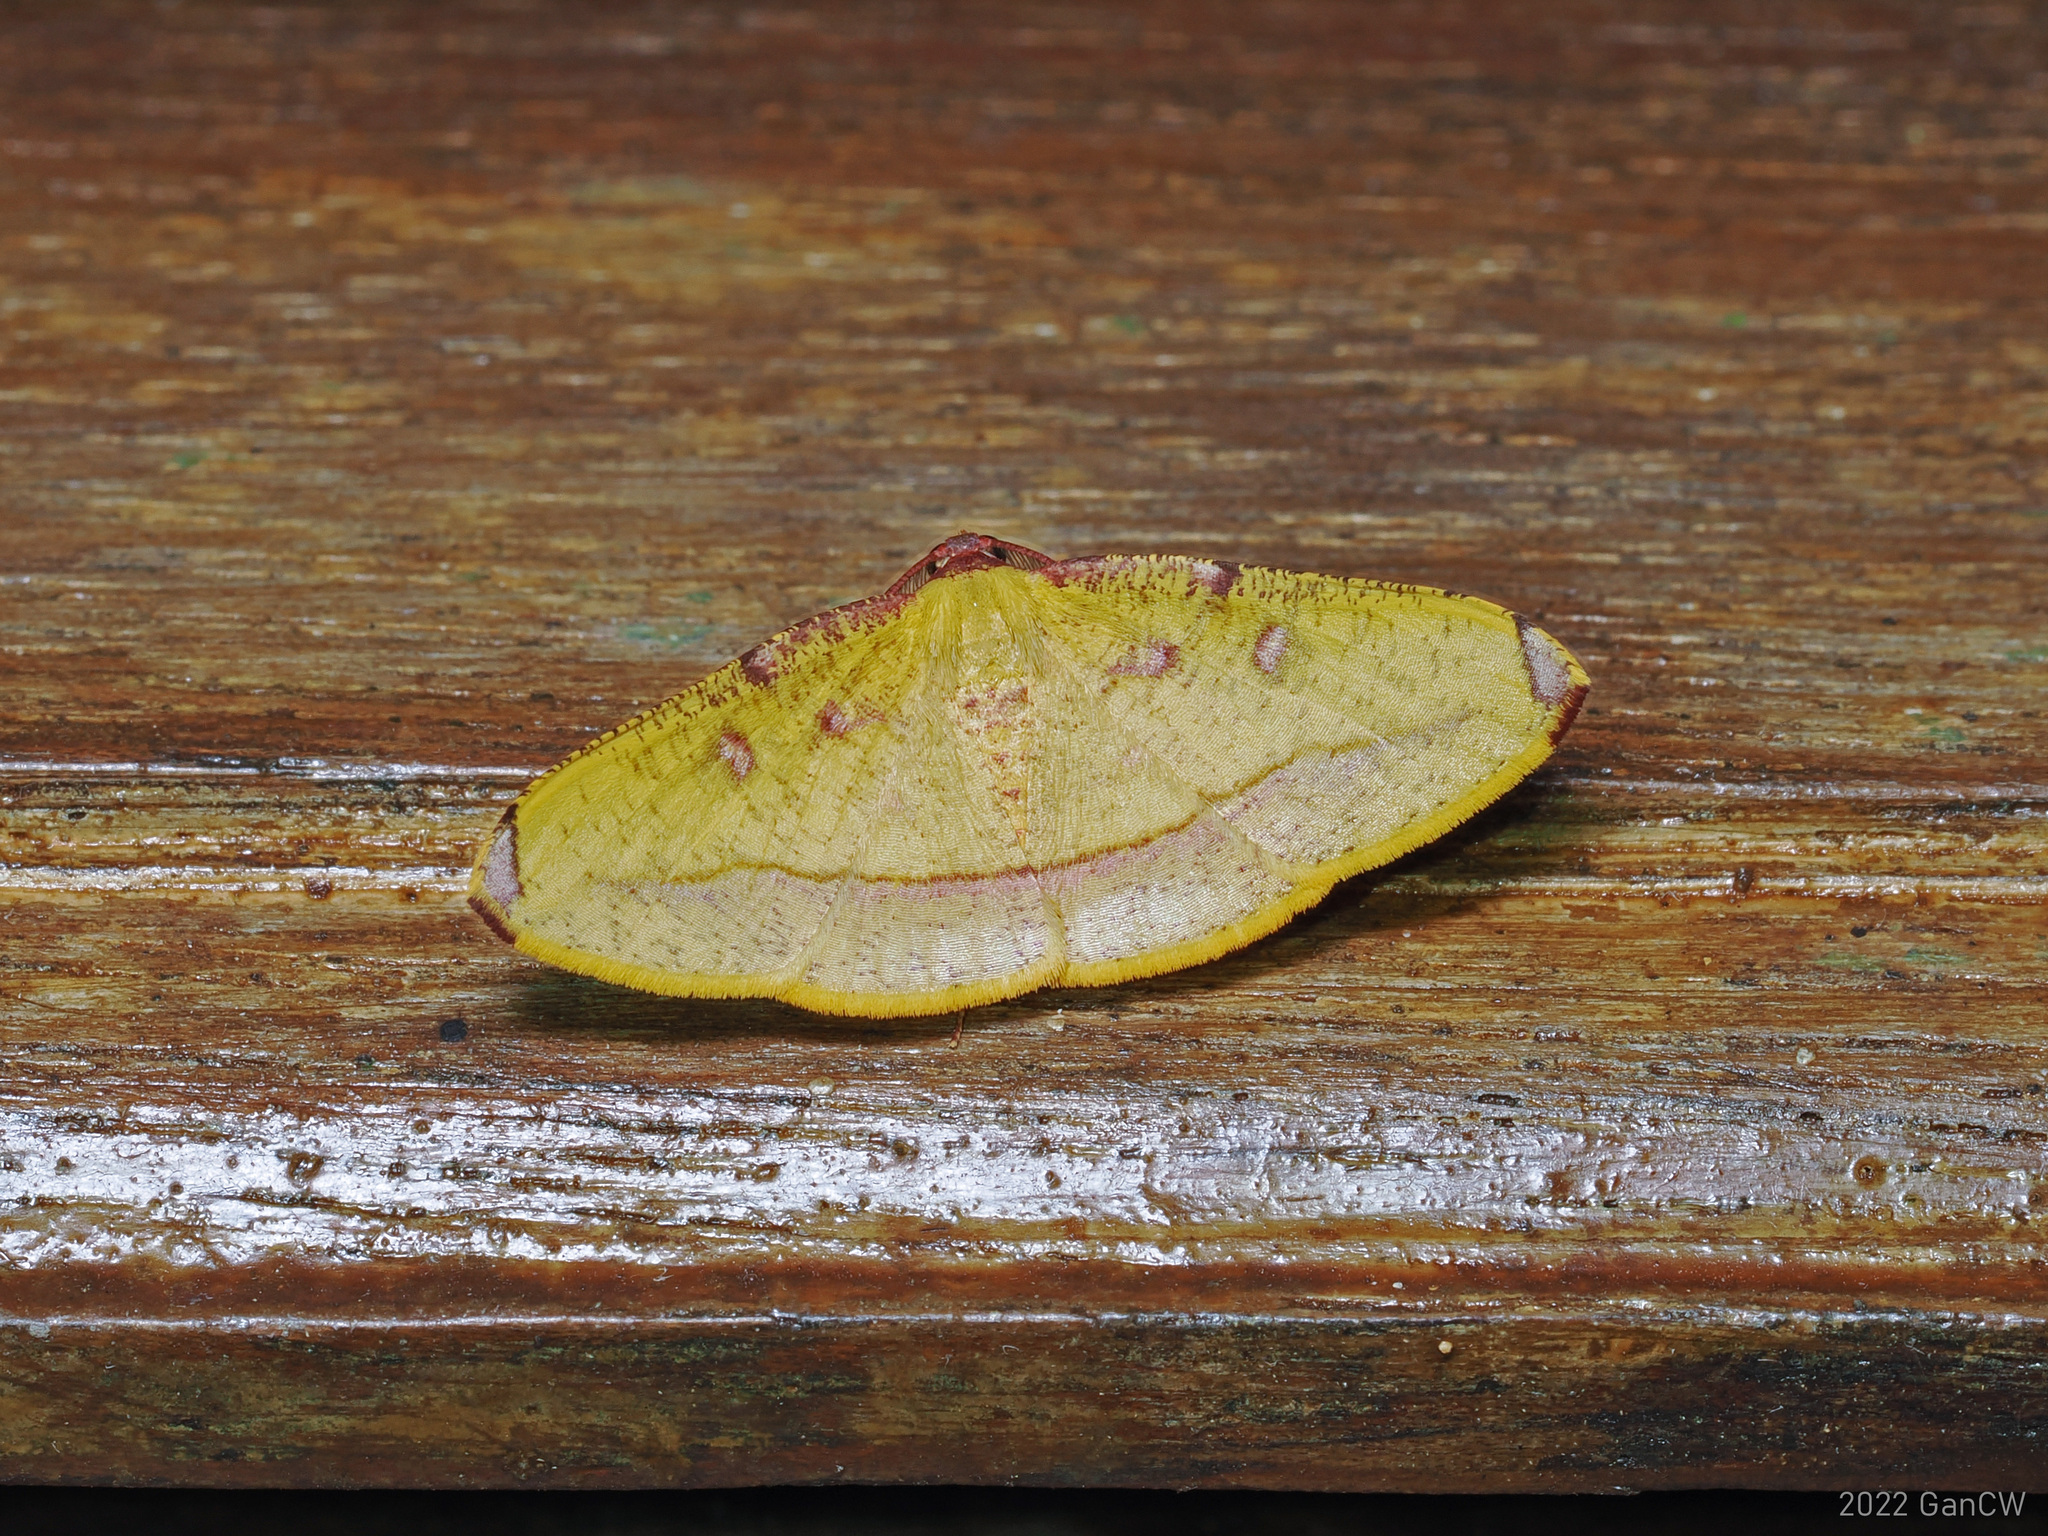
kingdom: Animalia
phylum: Arthropoda
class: Insecta
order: Lepidoptera
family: Geometridae
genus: Heterolocha
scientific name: Heterolocha pyreniata
